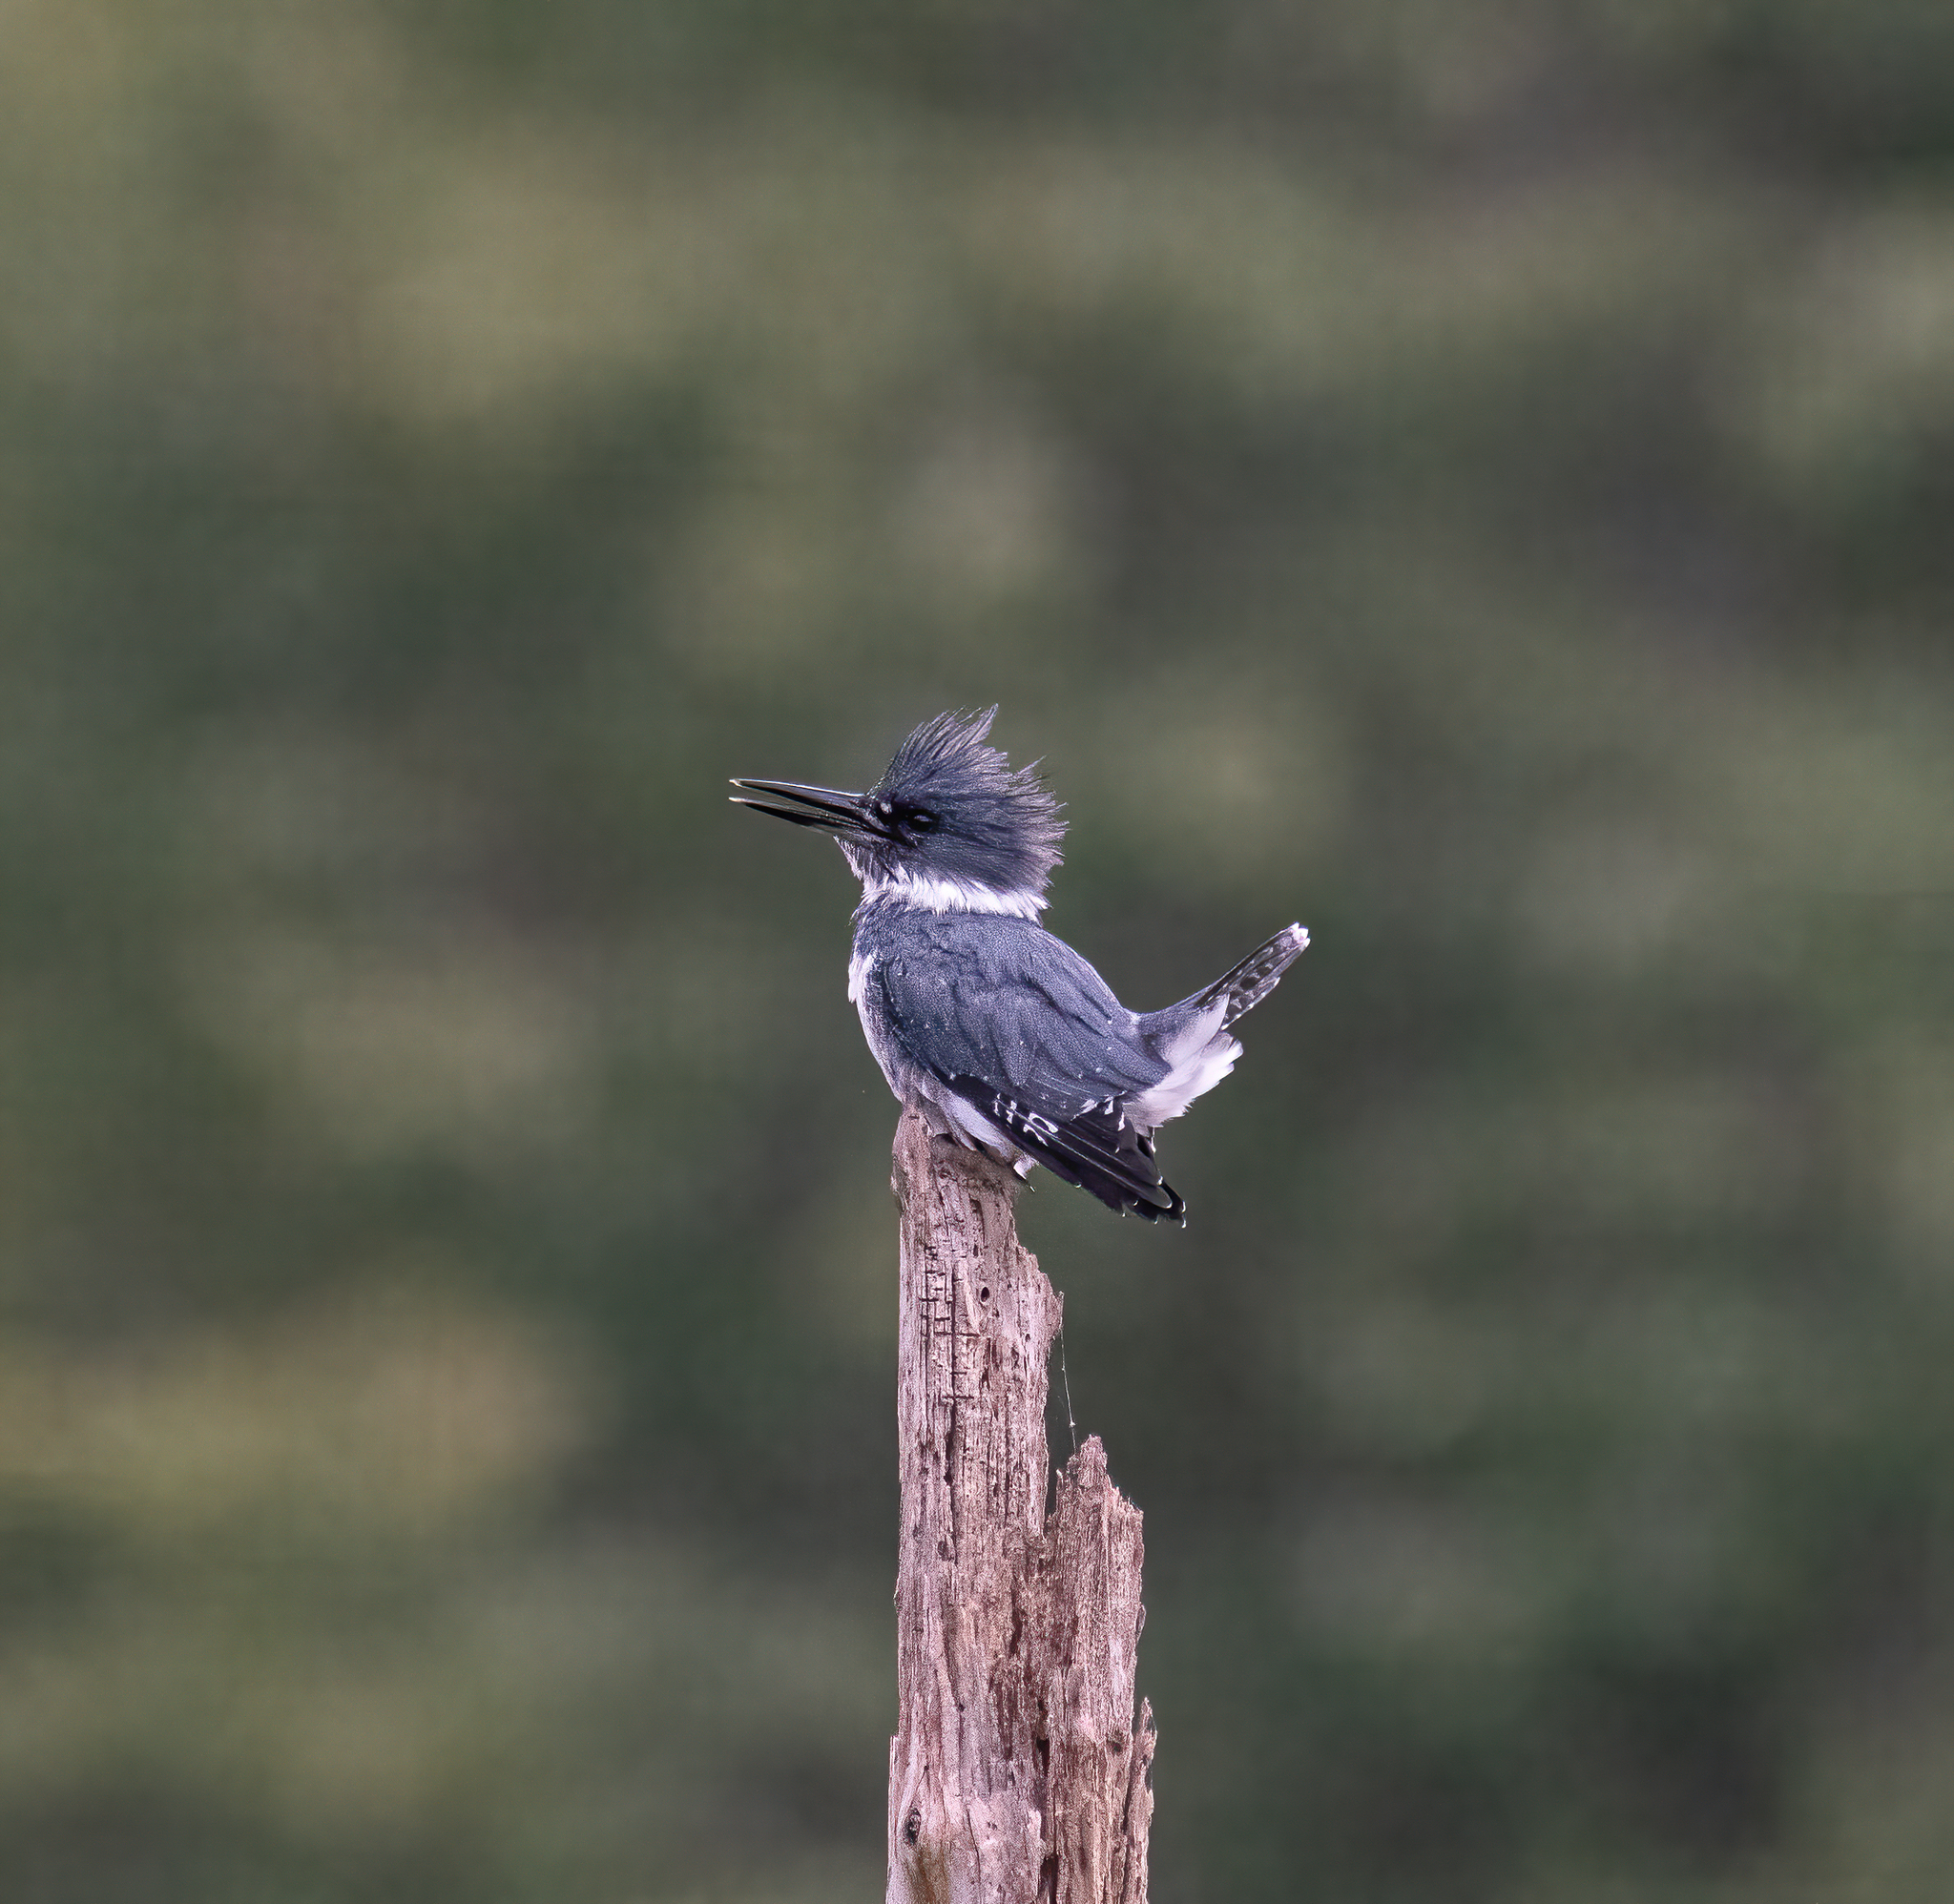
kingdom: Animalia
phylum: Chordata
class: Aves
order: Coraciiformes
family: Alcedinidae
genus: Megaceryle
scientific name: Megaceryle alcyon
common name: Belted kingfisher
